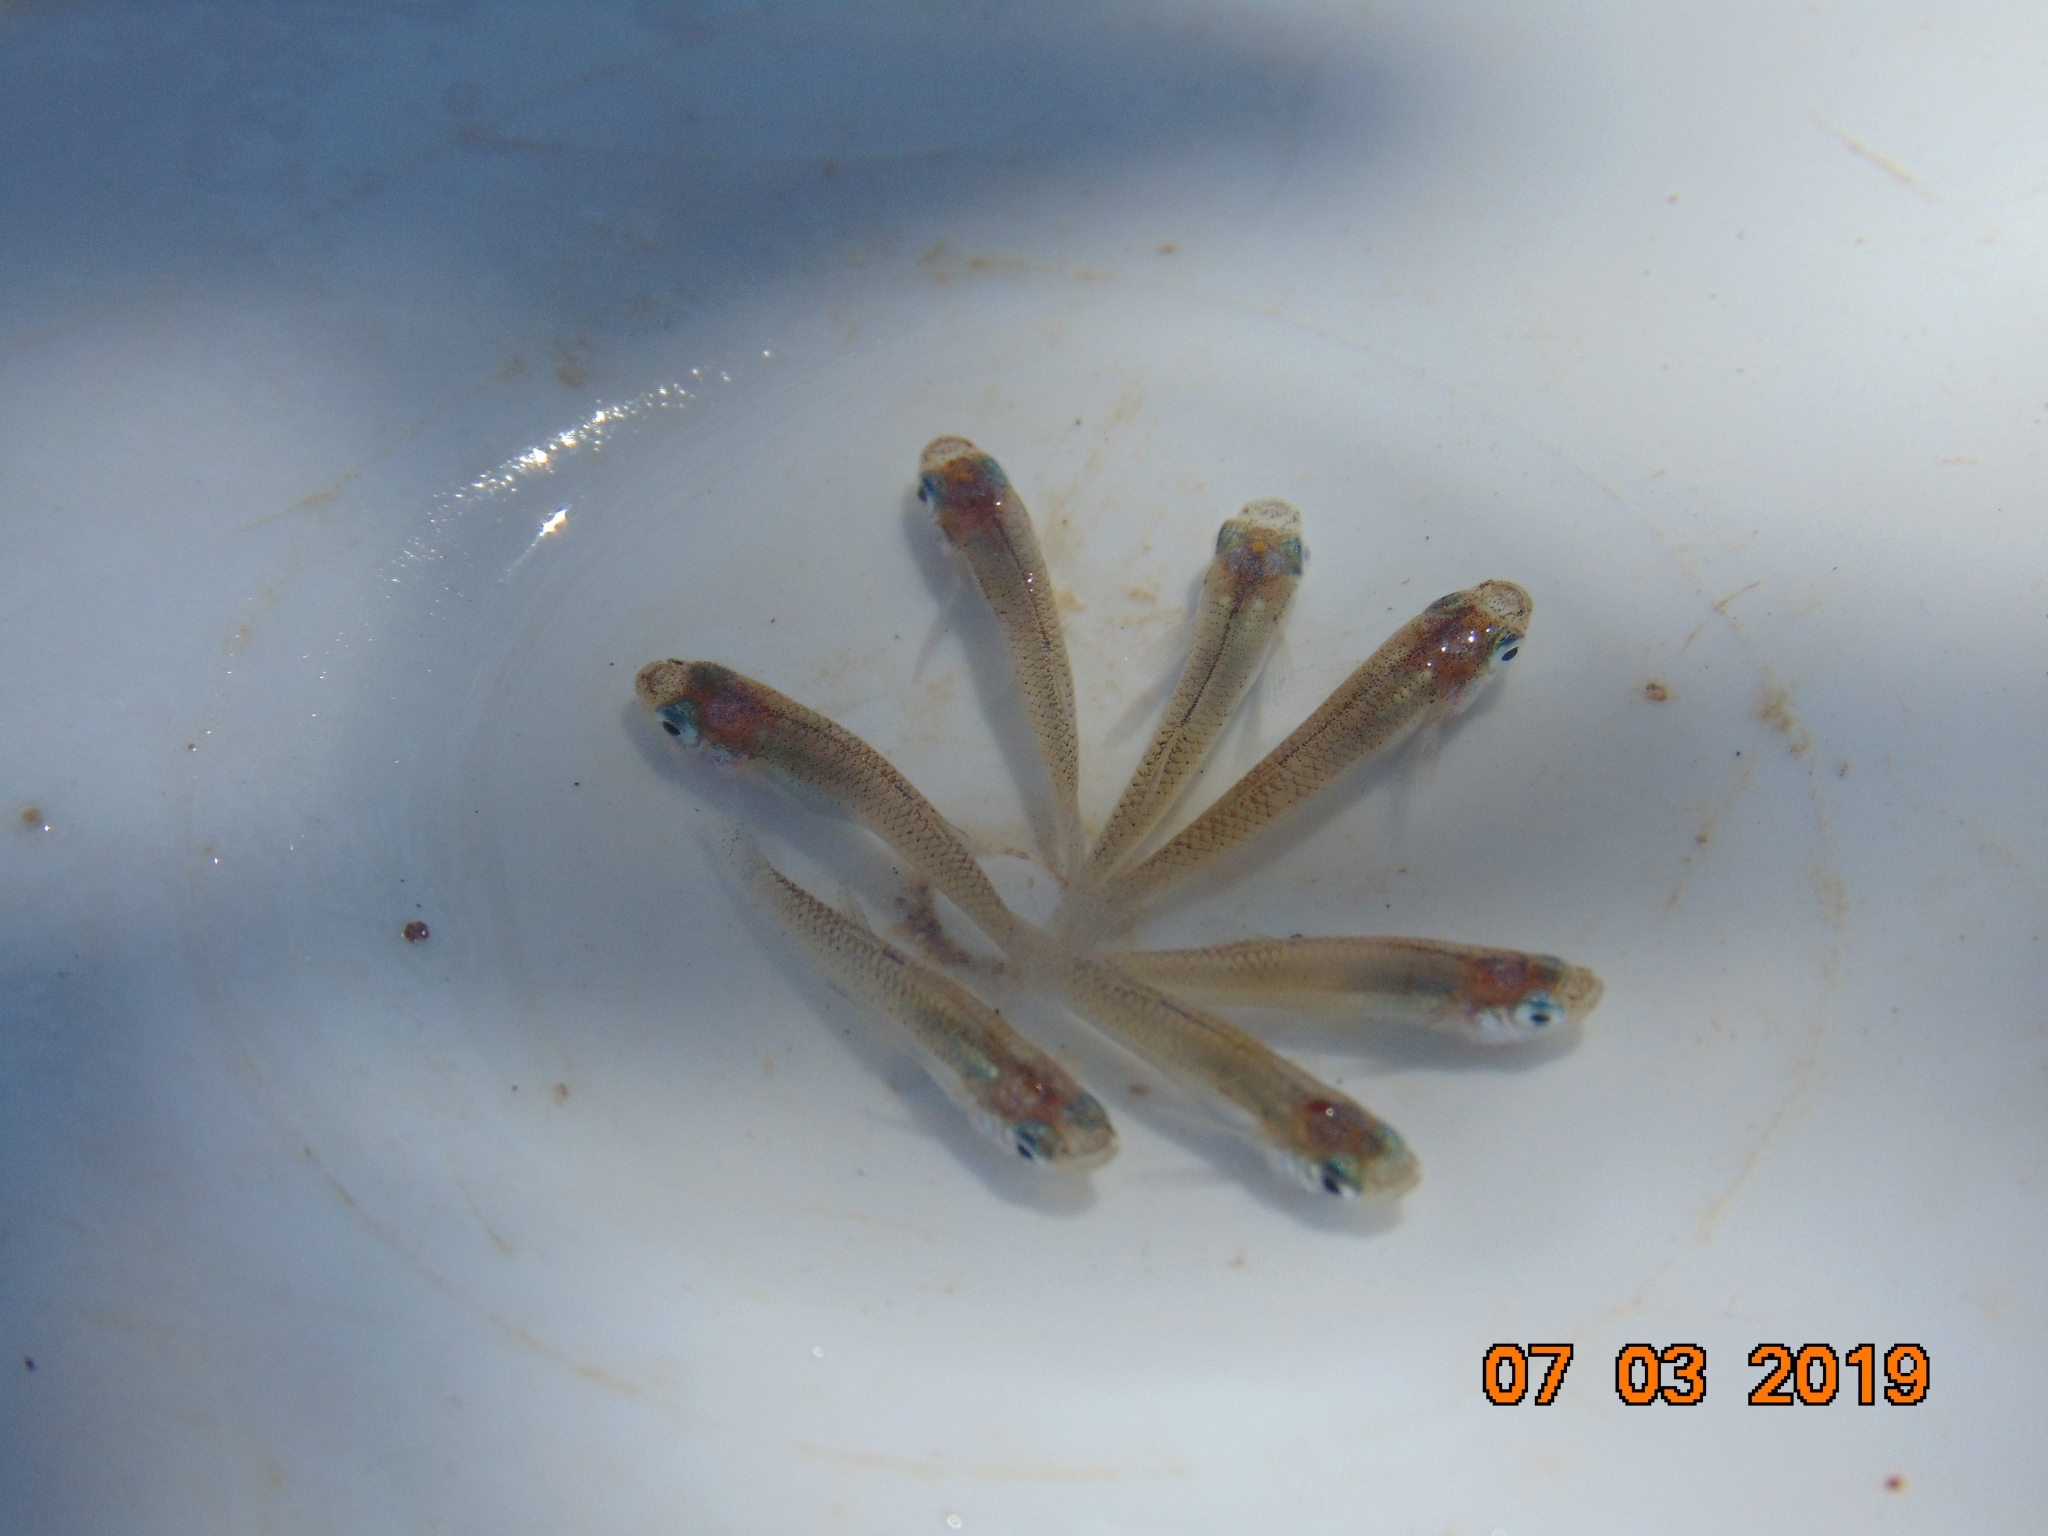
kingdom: Animalia
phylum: Chordata
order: Cyprinodontiformes
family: Poeciliidae
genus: Gambusia
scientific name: Gambusia yucatana
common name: Yucatan gambusia
